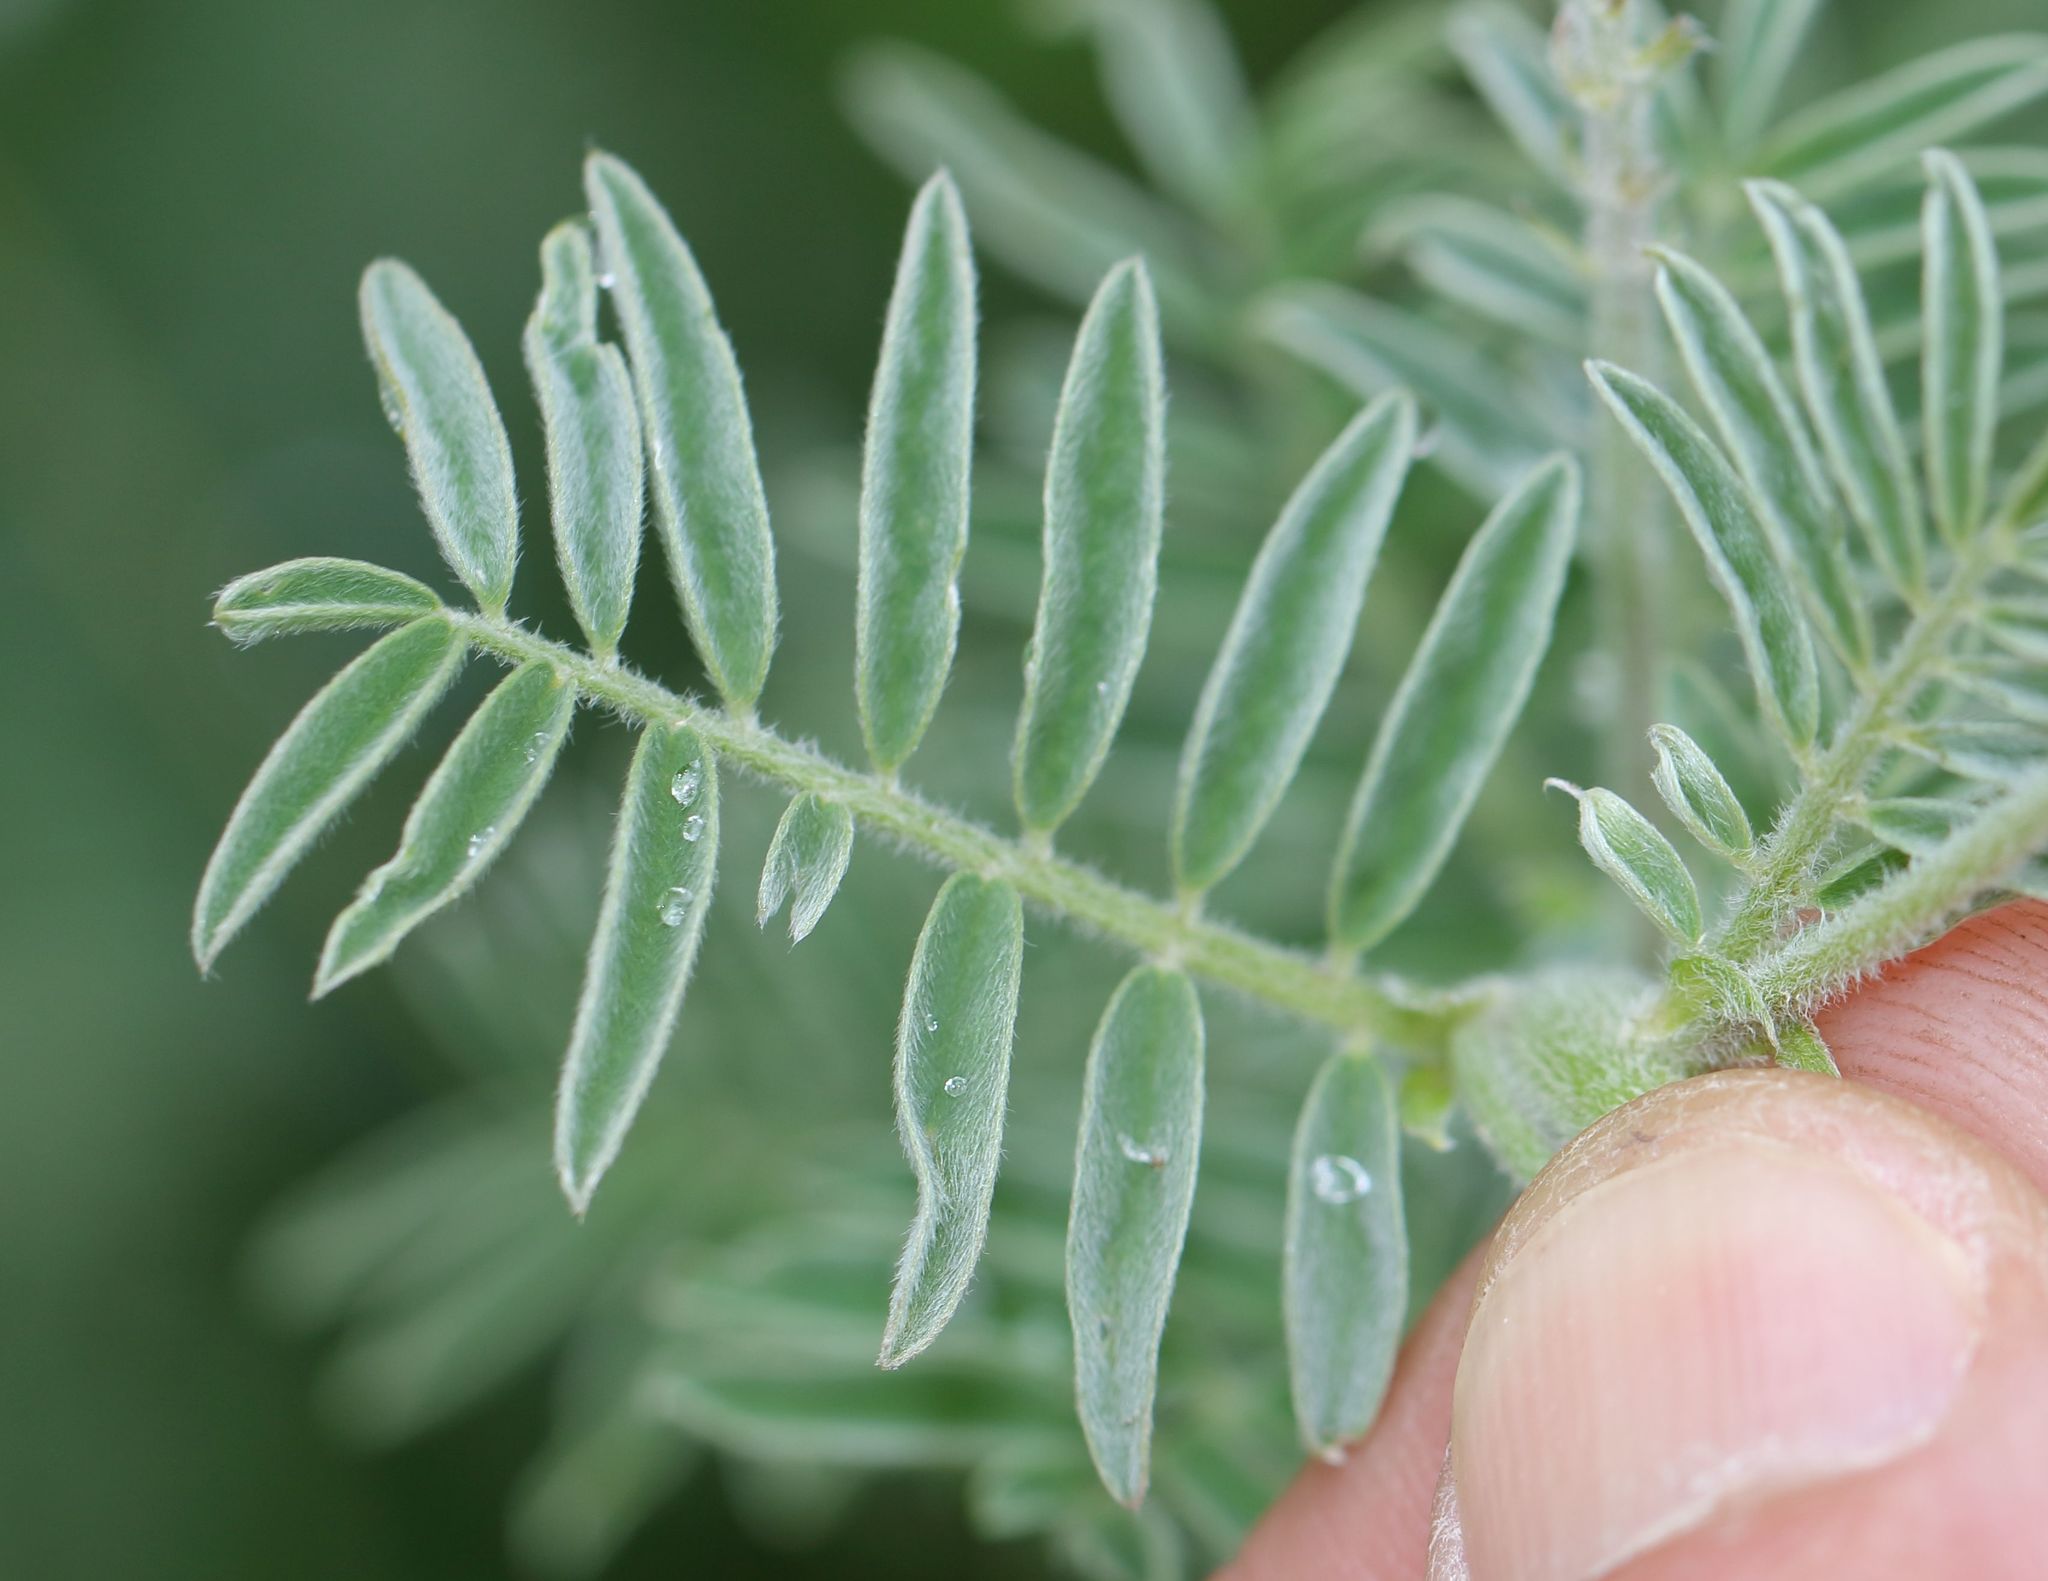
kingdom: Plantae
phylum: Tracheophyta
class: Magnoliopsida
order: Fabales
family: Fabaceae
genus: Lessertia
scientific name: Lessertia perennans
